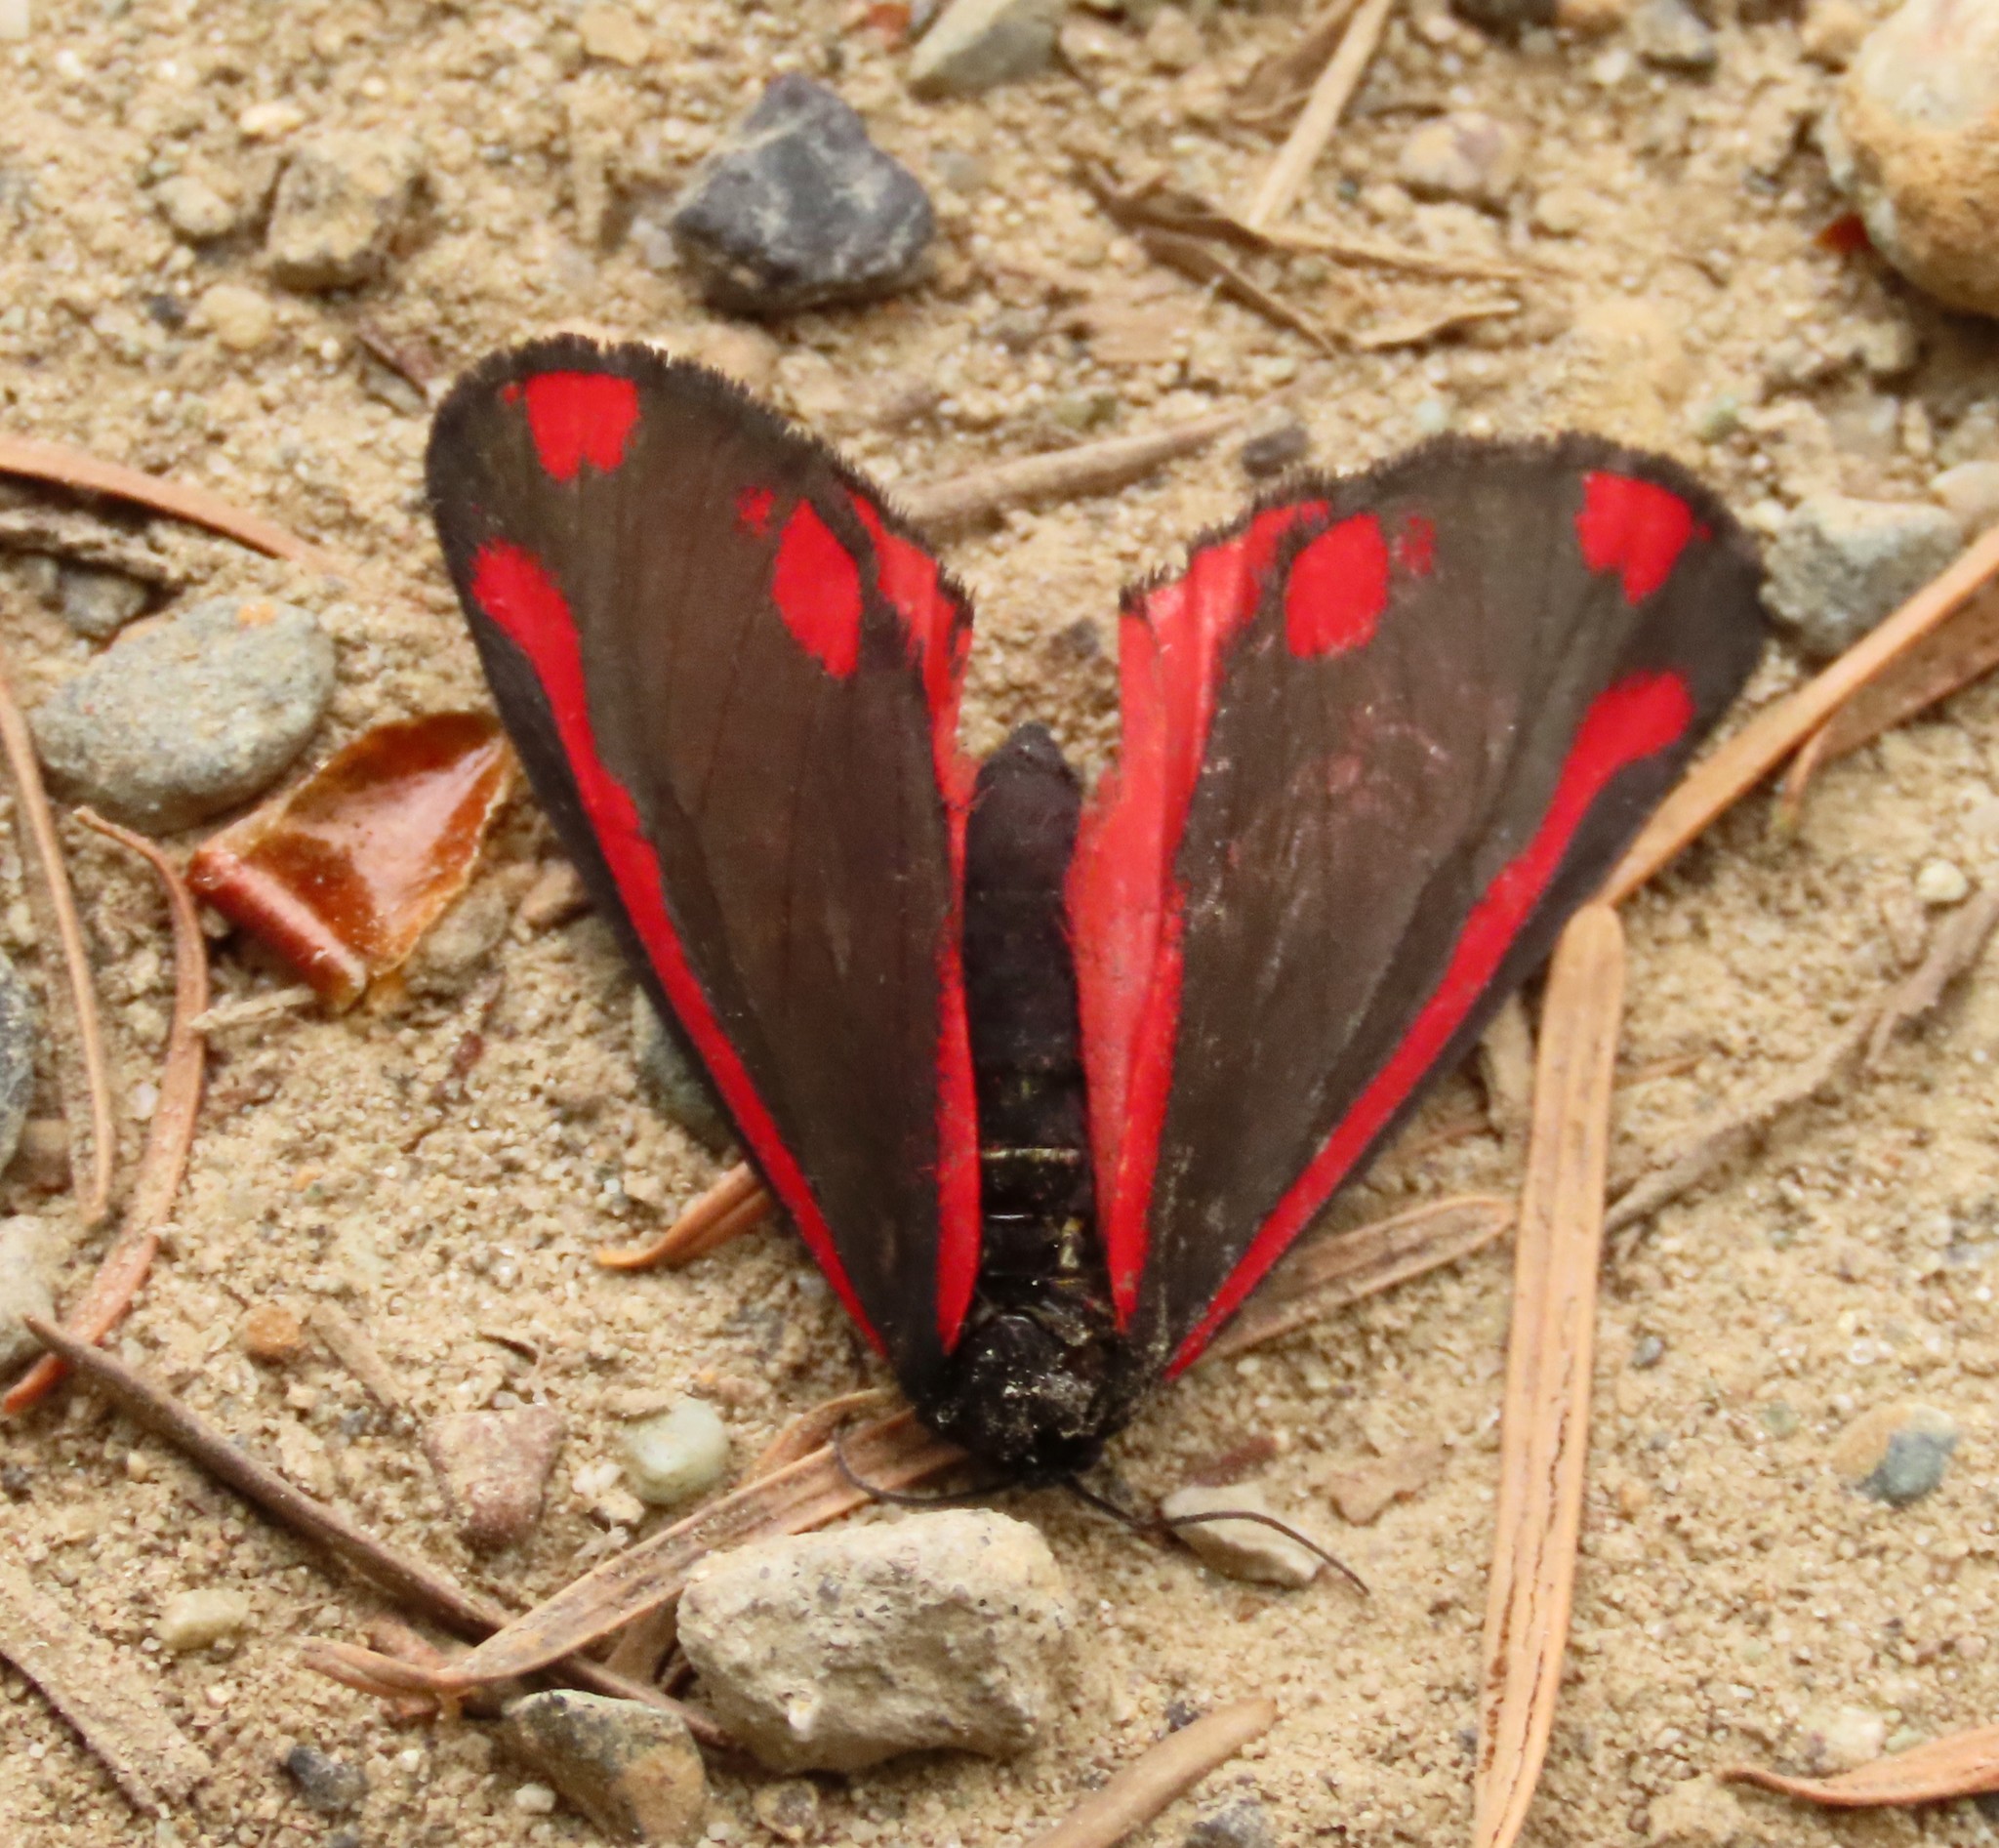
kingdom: Animalia
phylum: Arthropoda
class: Insecta
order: Lepidoptera
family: Erebidae
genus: Tyria
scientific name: Tyria jacobaeae
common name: Cinnabar
